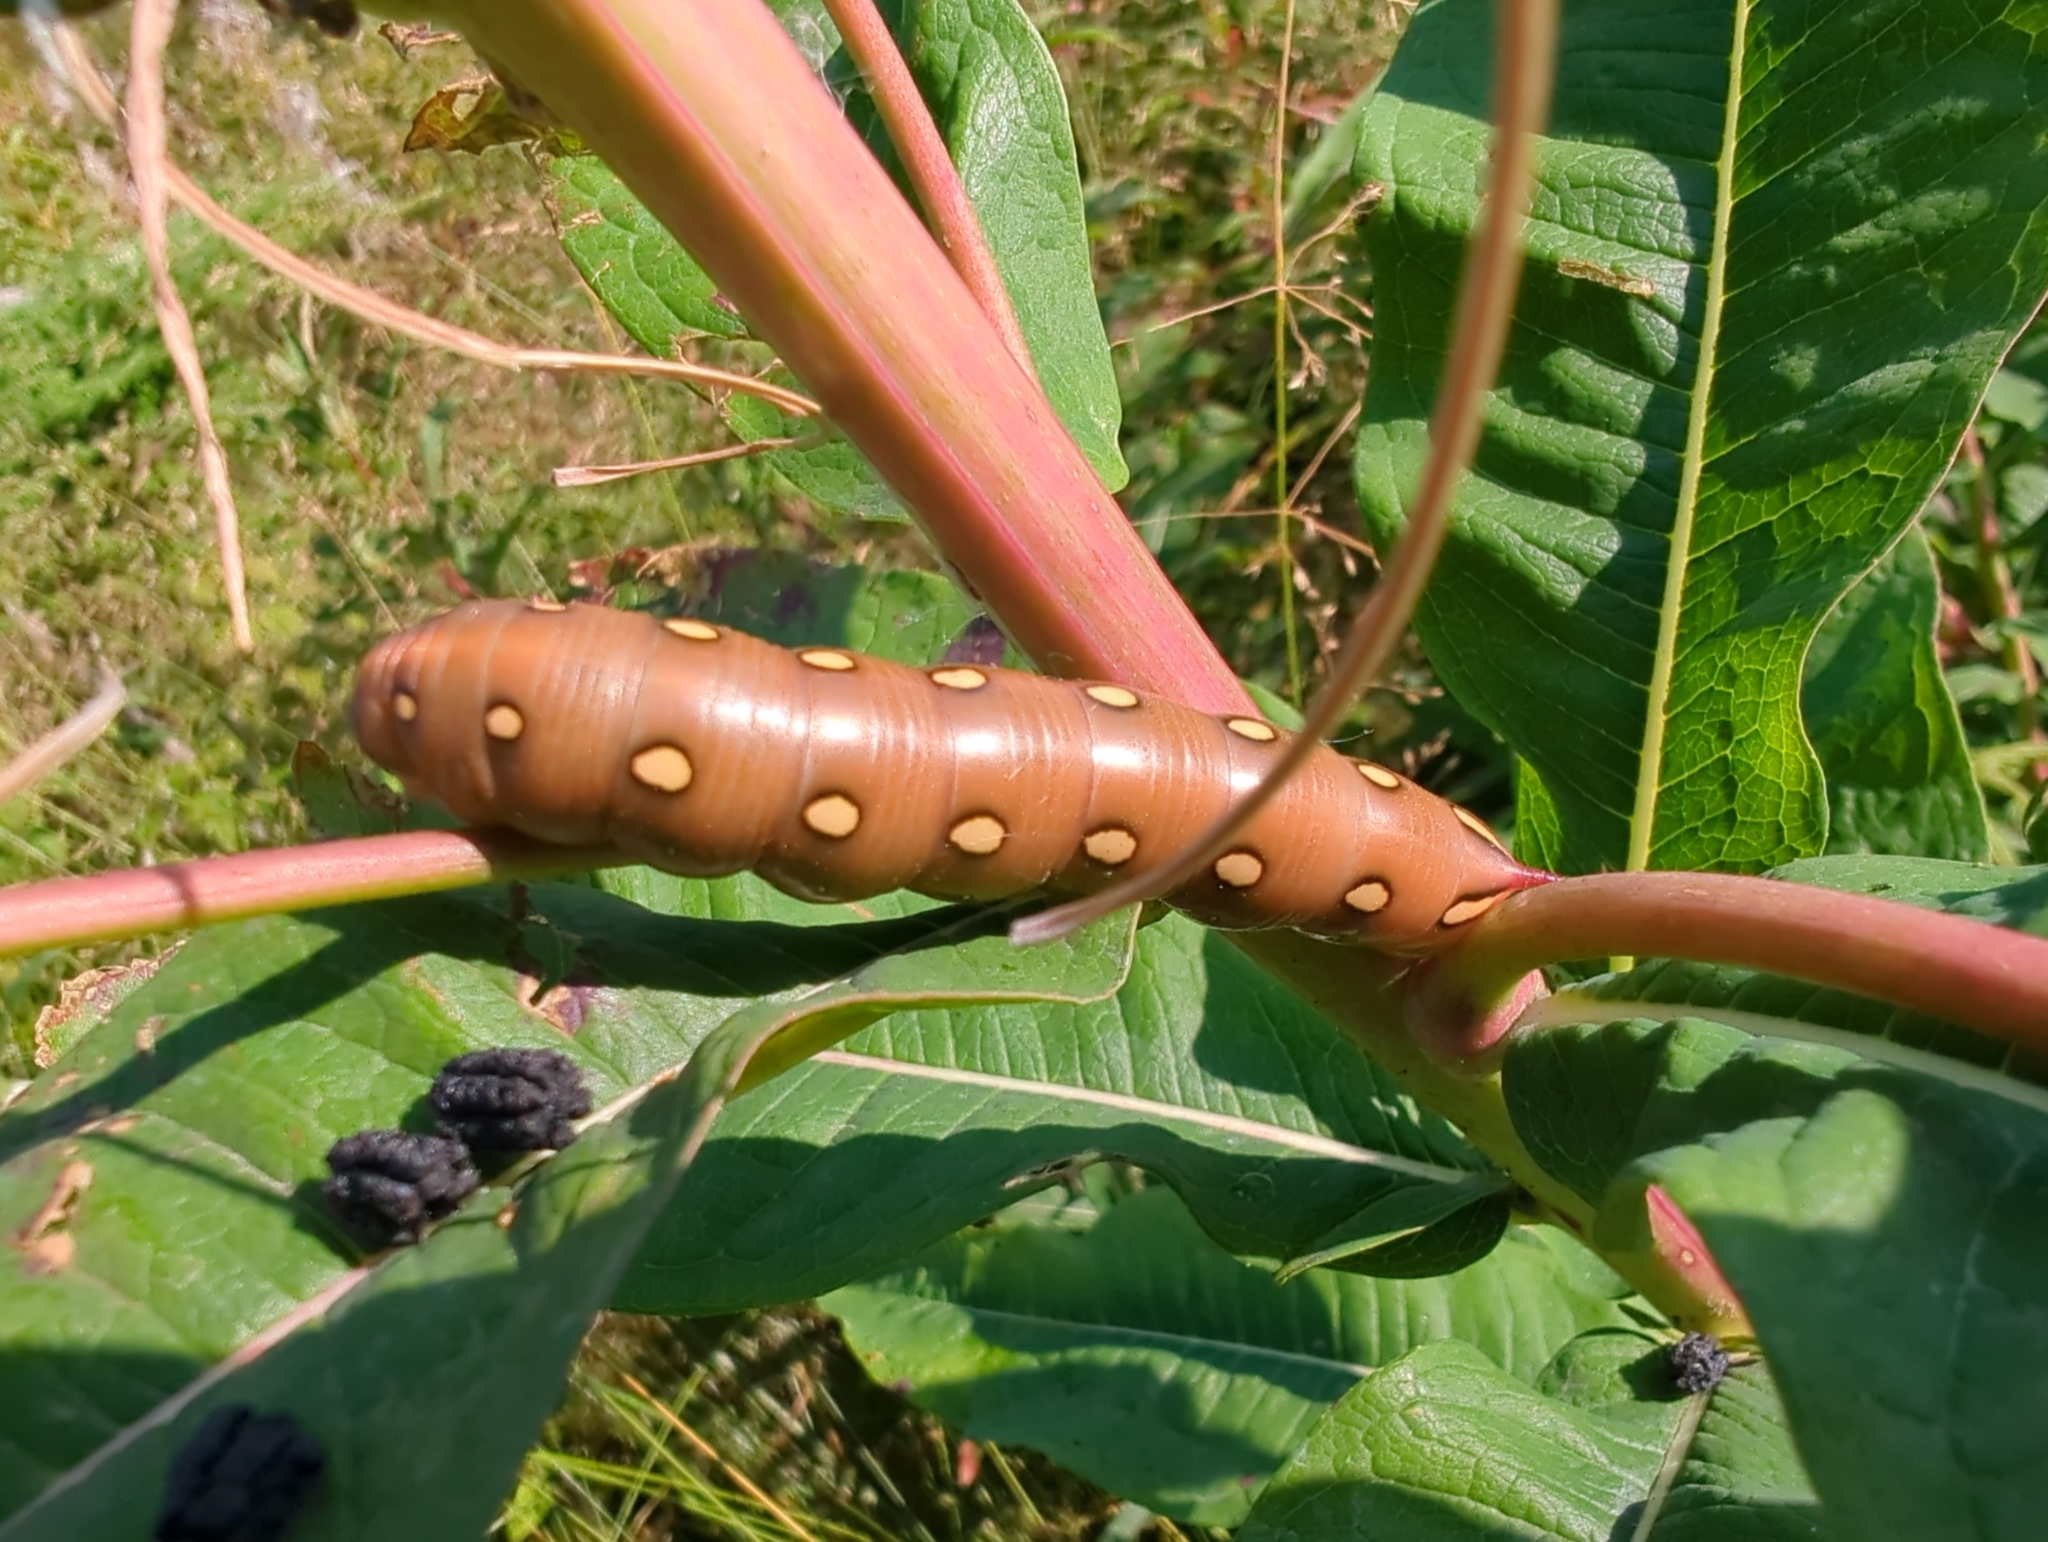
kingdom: Animalia
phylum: Arthropoda
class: Insecta
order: Lepidoptera
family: Sphingidae
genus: Hyles
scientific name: Hyles gallii
